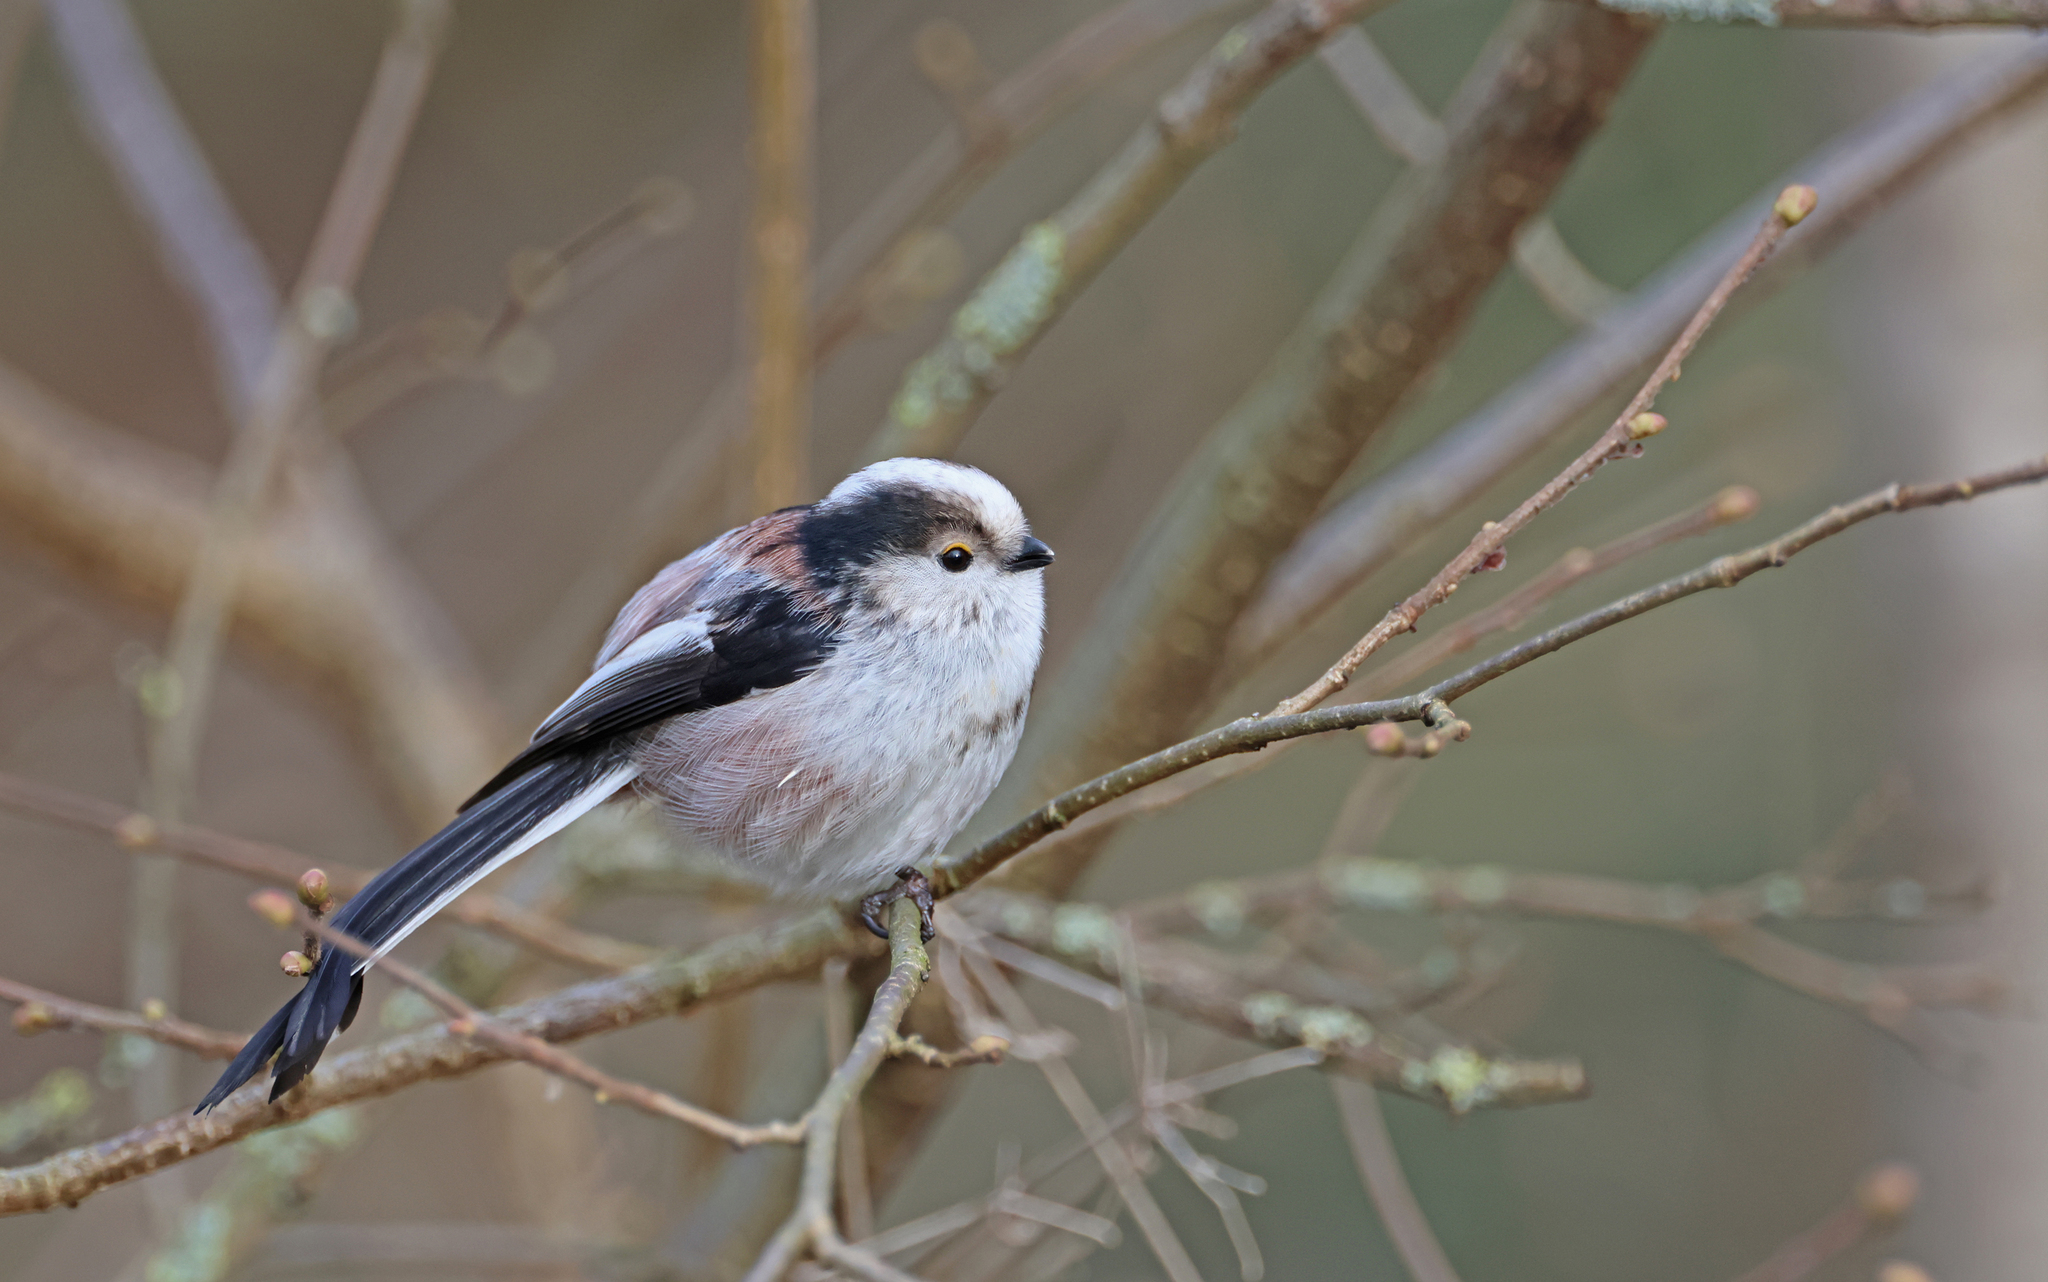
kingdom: Animalia
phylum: Chordata
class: Aves
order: Passeriformes
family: Aegithalidae
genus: Aegithalos
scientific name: Aegithalos caudatus
